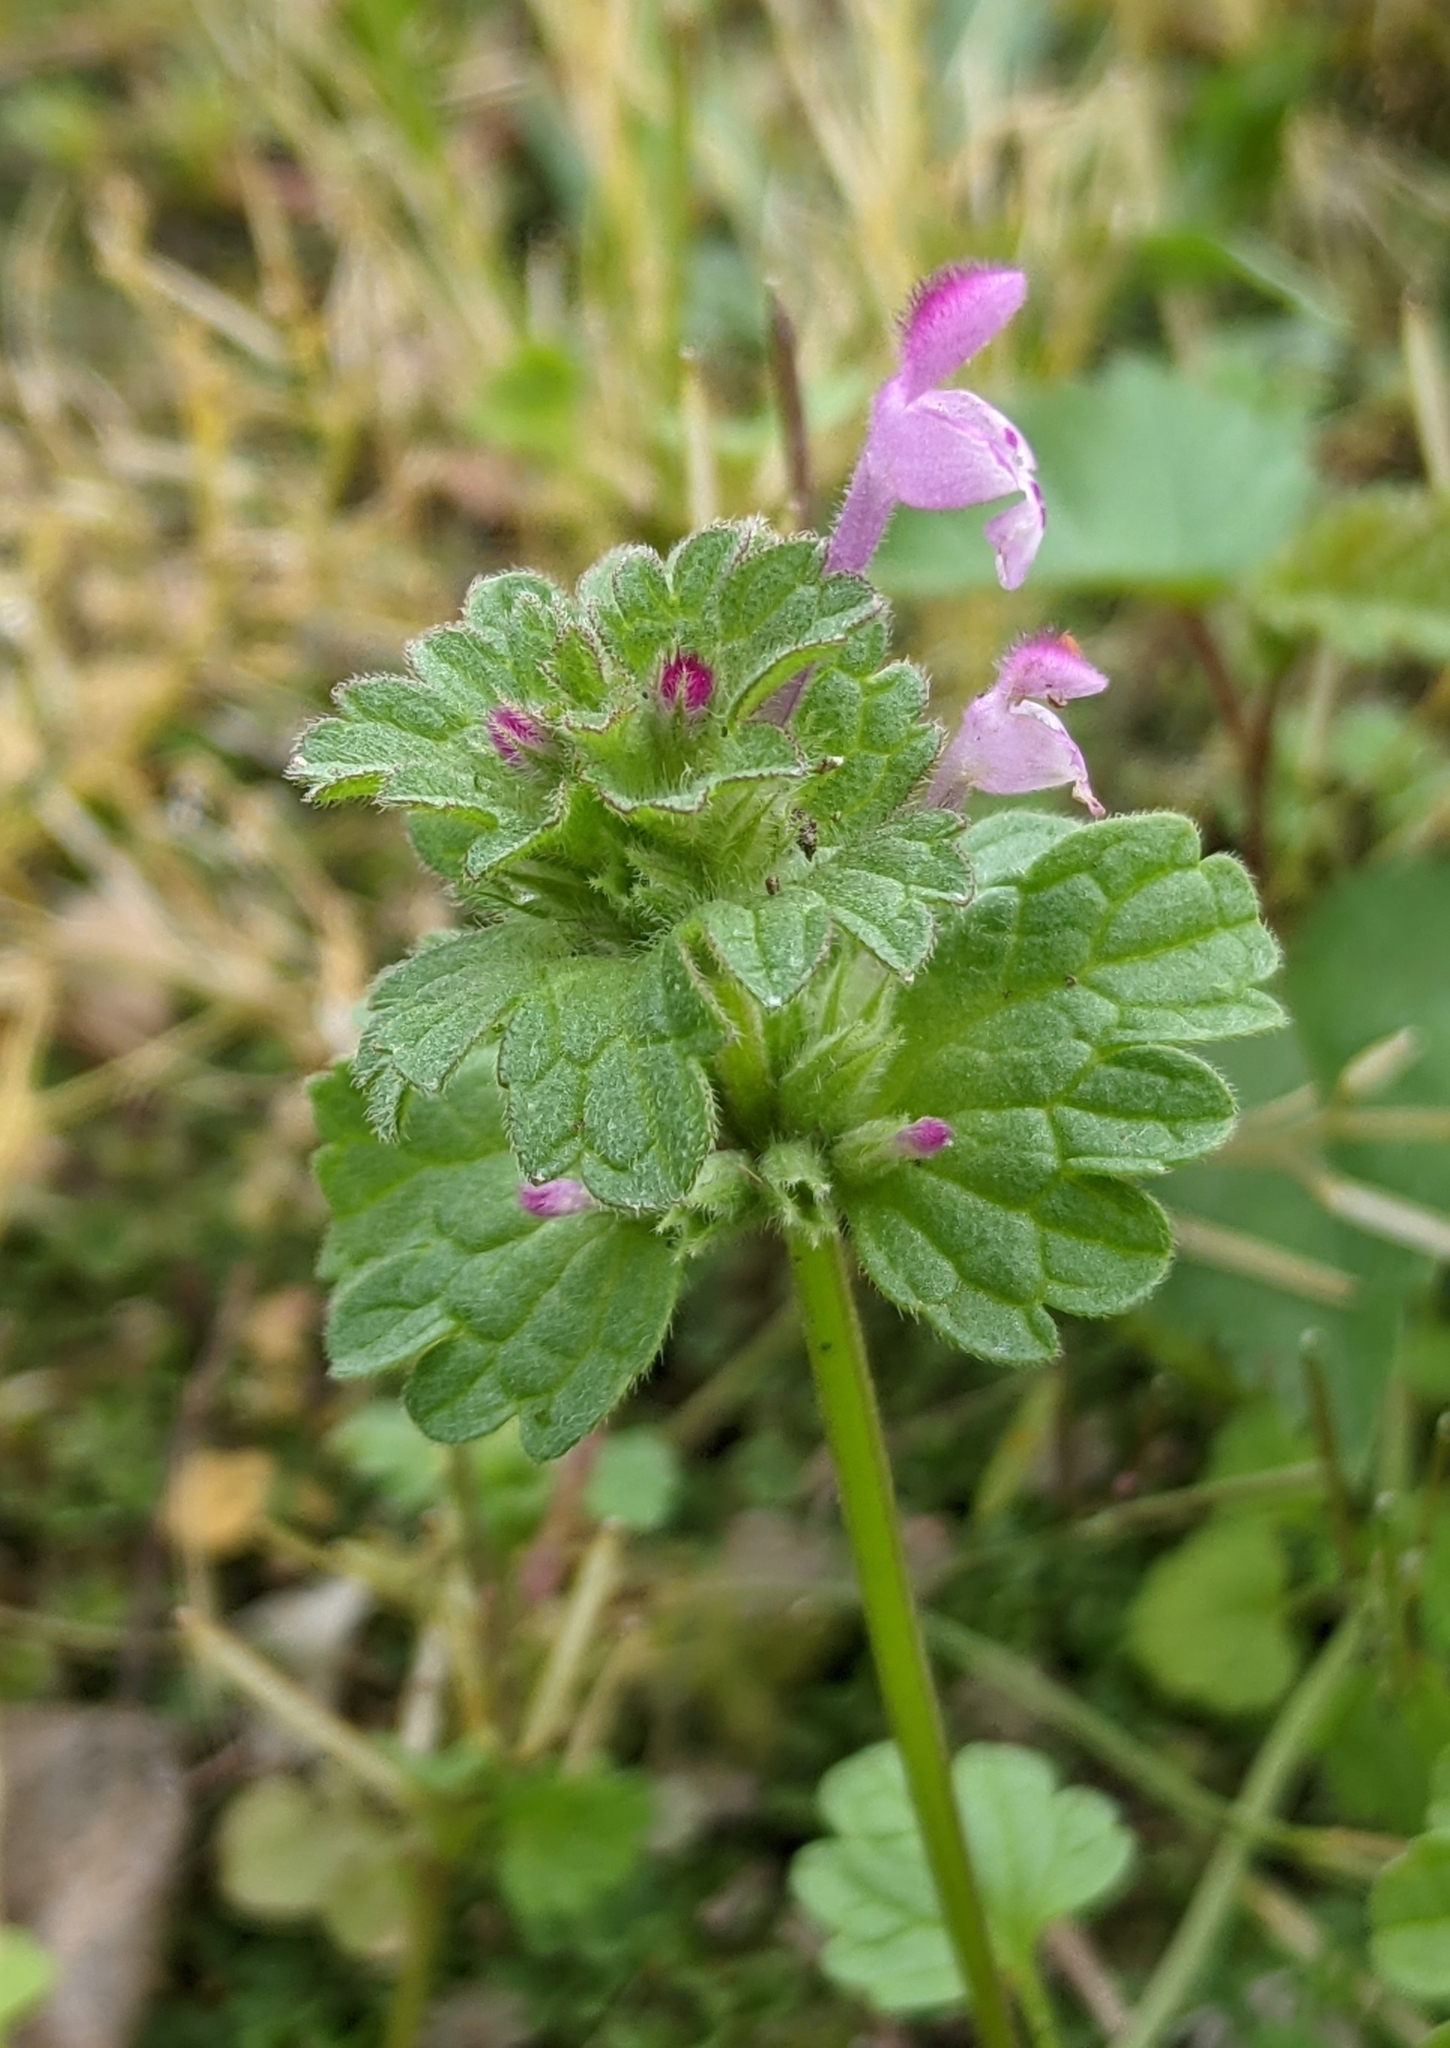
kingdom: Plantae
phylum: Tracheophyta
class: Magnoliopsida
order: Lamiales
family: Lamiaceae
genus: Lamium
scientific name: Lamium amplexicaule
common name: Henbit dead-nettle
